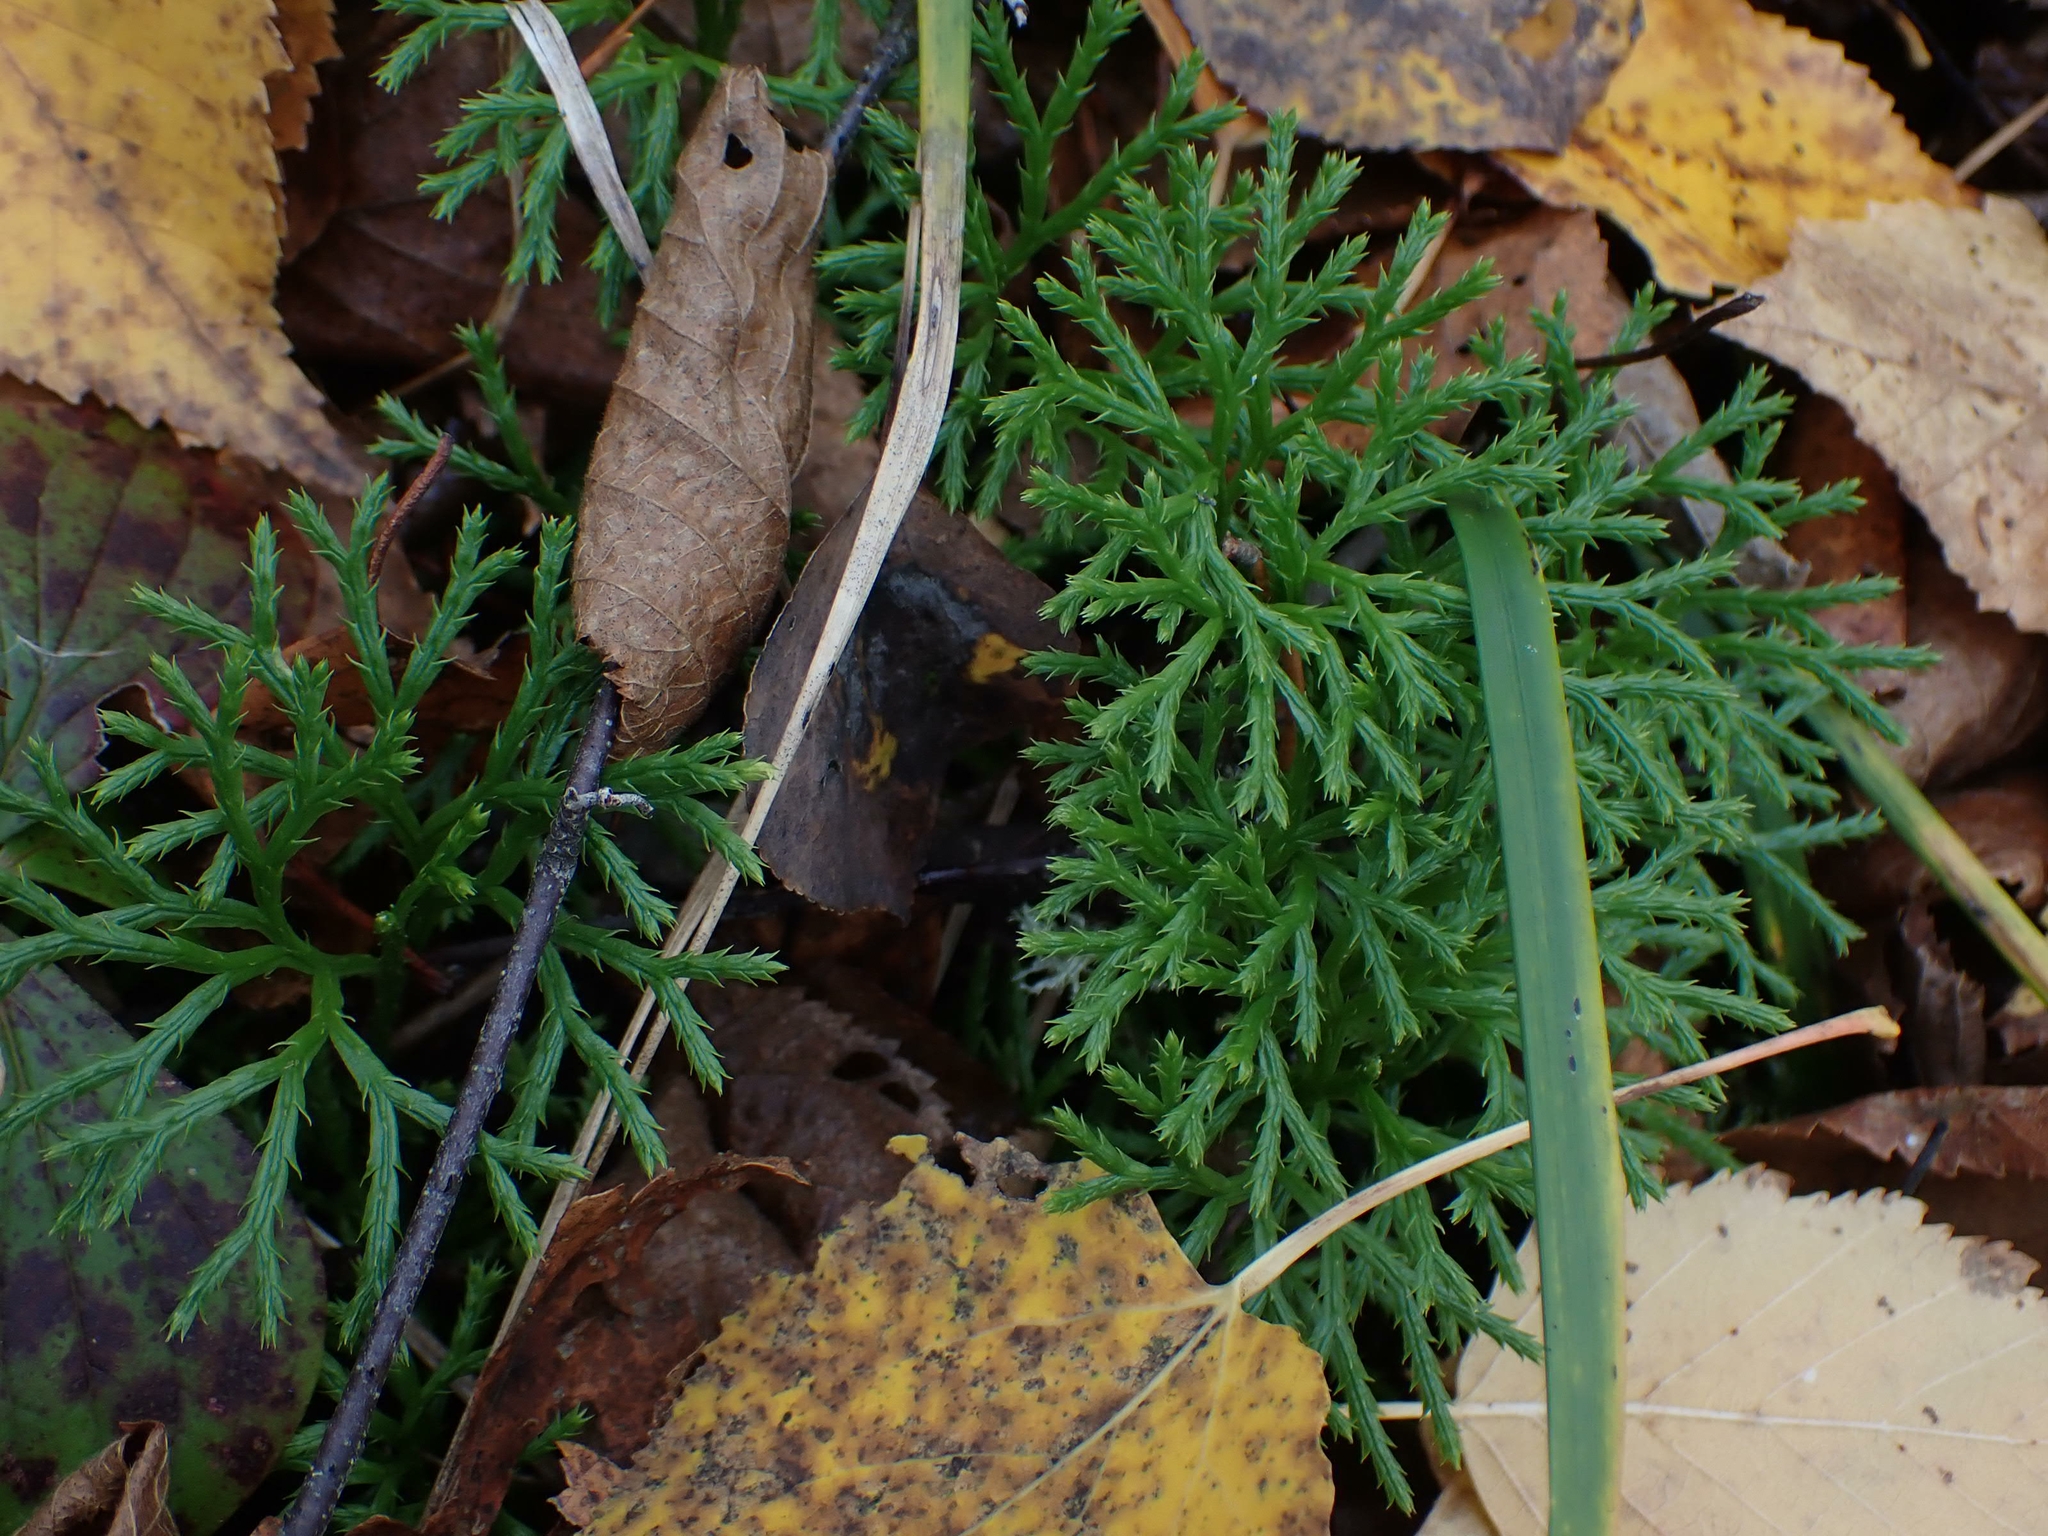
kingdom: Plantae
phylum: Tracheophyta
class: Lycopodiopsida
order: Lycopodiales
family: Lycopodiaceae
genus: Diphasiastrum
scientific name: Diphasiastrum complanatum
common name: Northern running-pine
